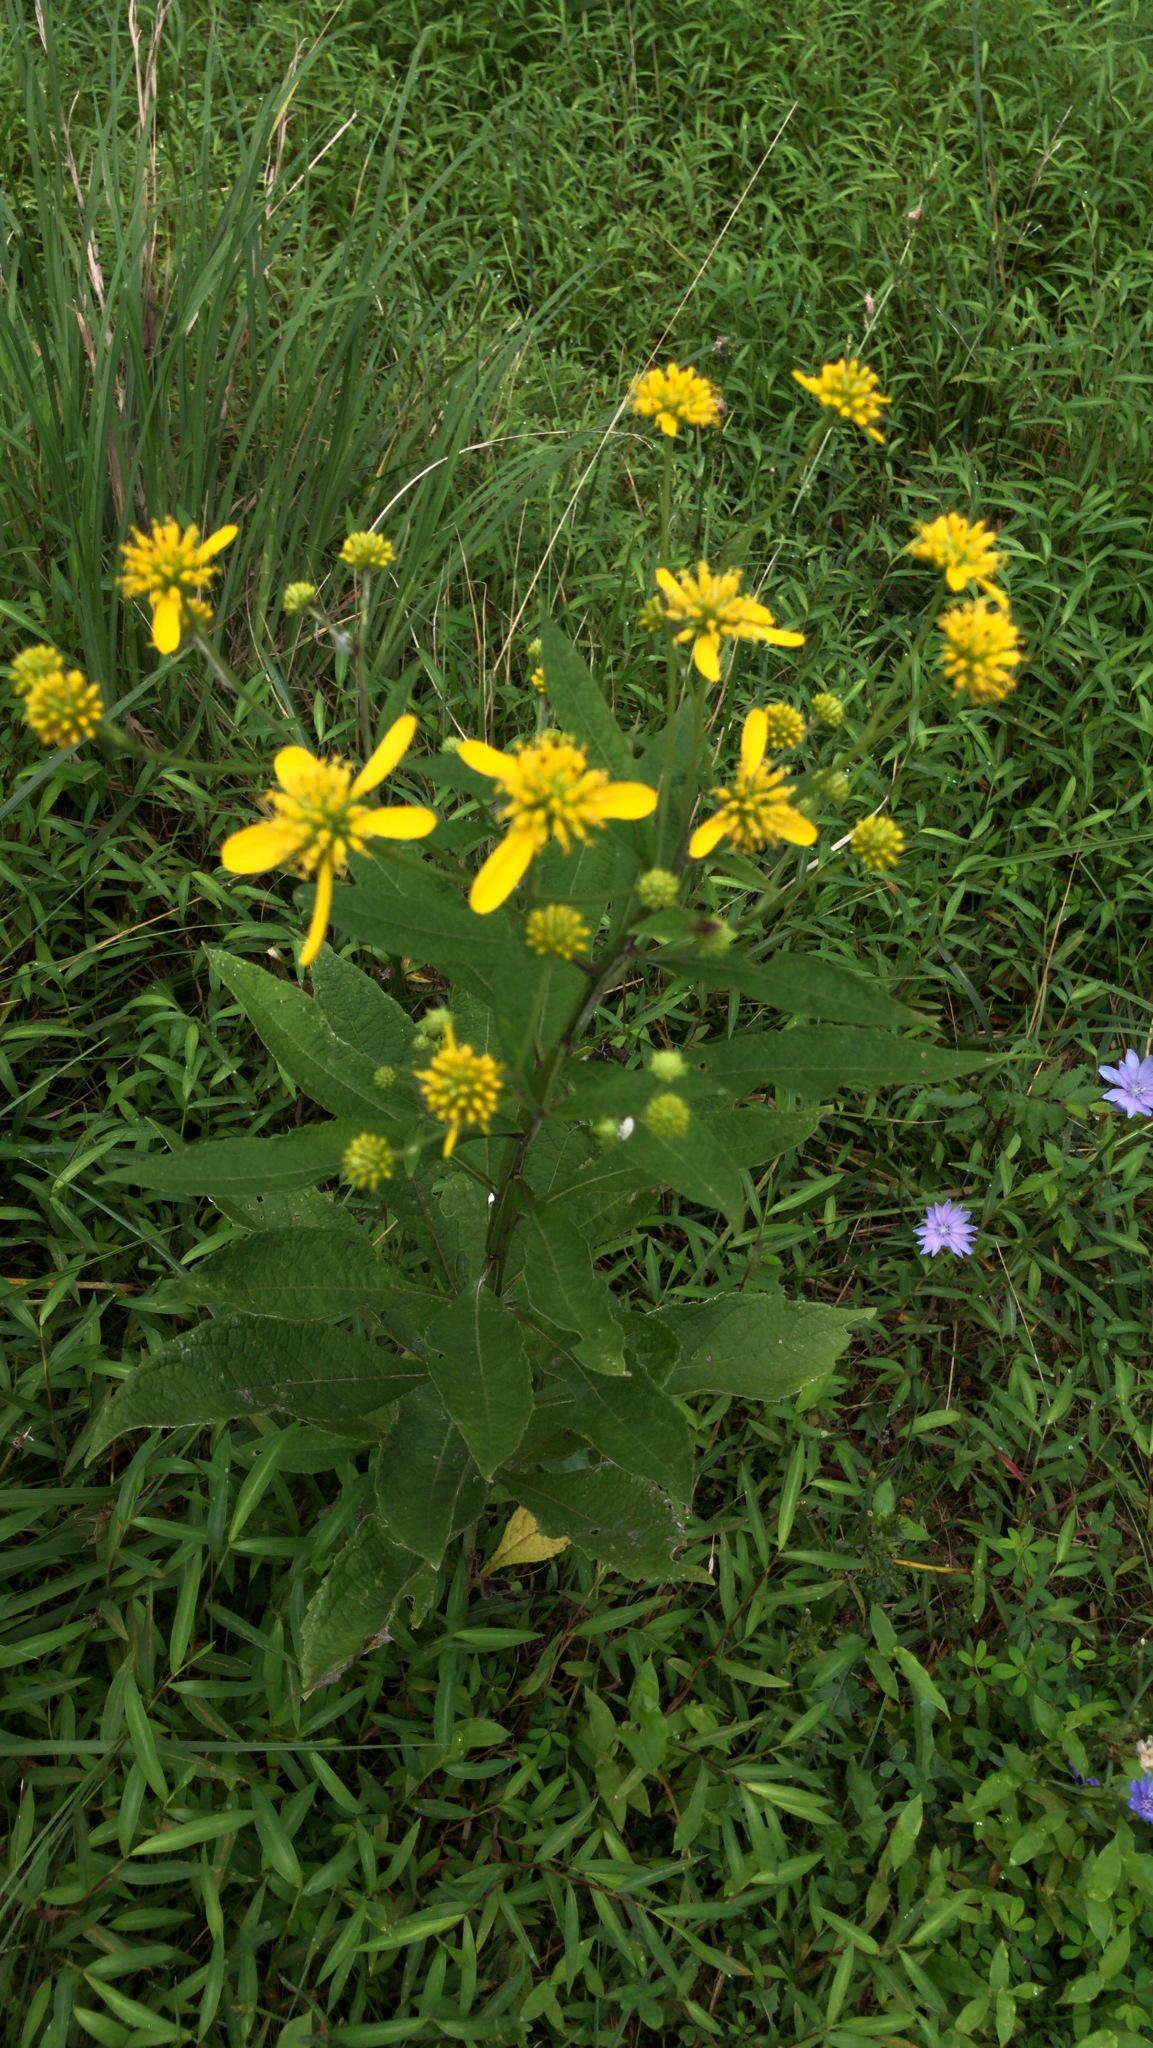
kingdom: Plantae
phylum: Tracheophyta
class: Magnoliopsida
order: Asterales
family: Asteraceae
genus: Verbesina
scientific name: Verbesina alternifolia
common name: Wingstem
